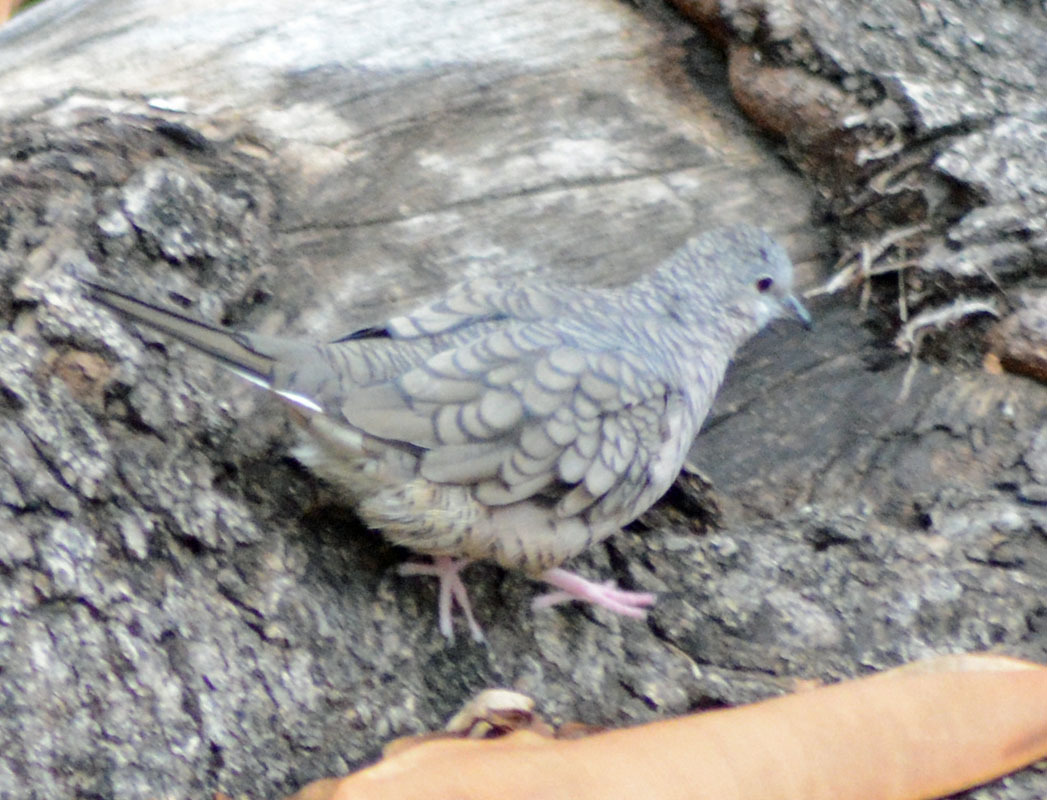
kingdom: Animalia
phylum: Chordata
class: Aves
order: Columbiformes
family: Columbidae
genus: Columbina
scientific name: Columbina inca
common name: Inca dove
